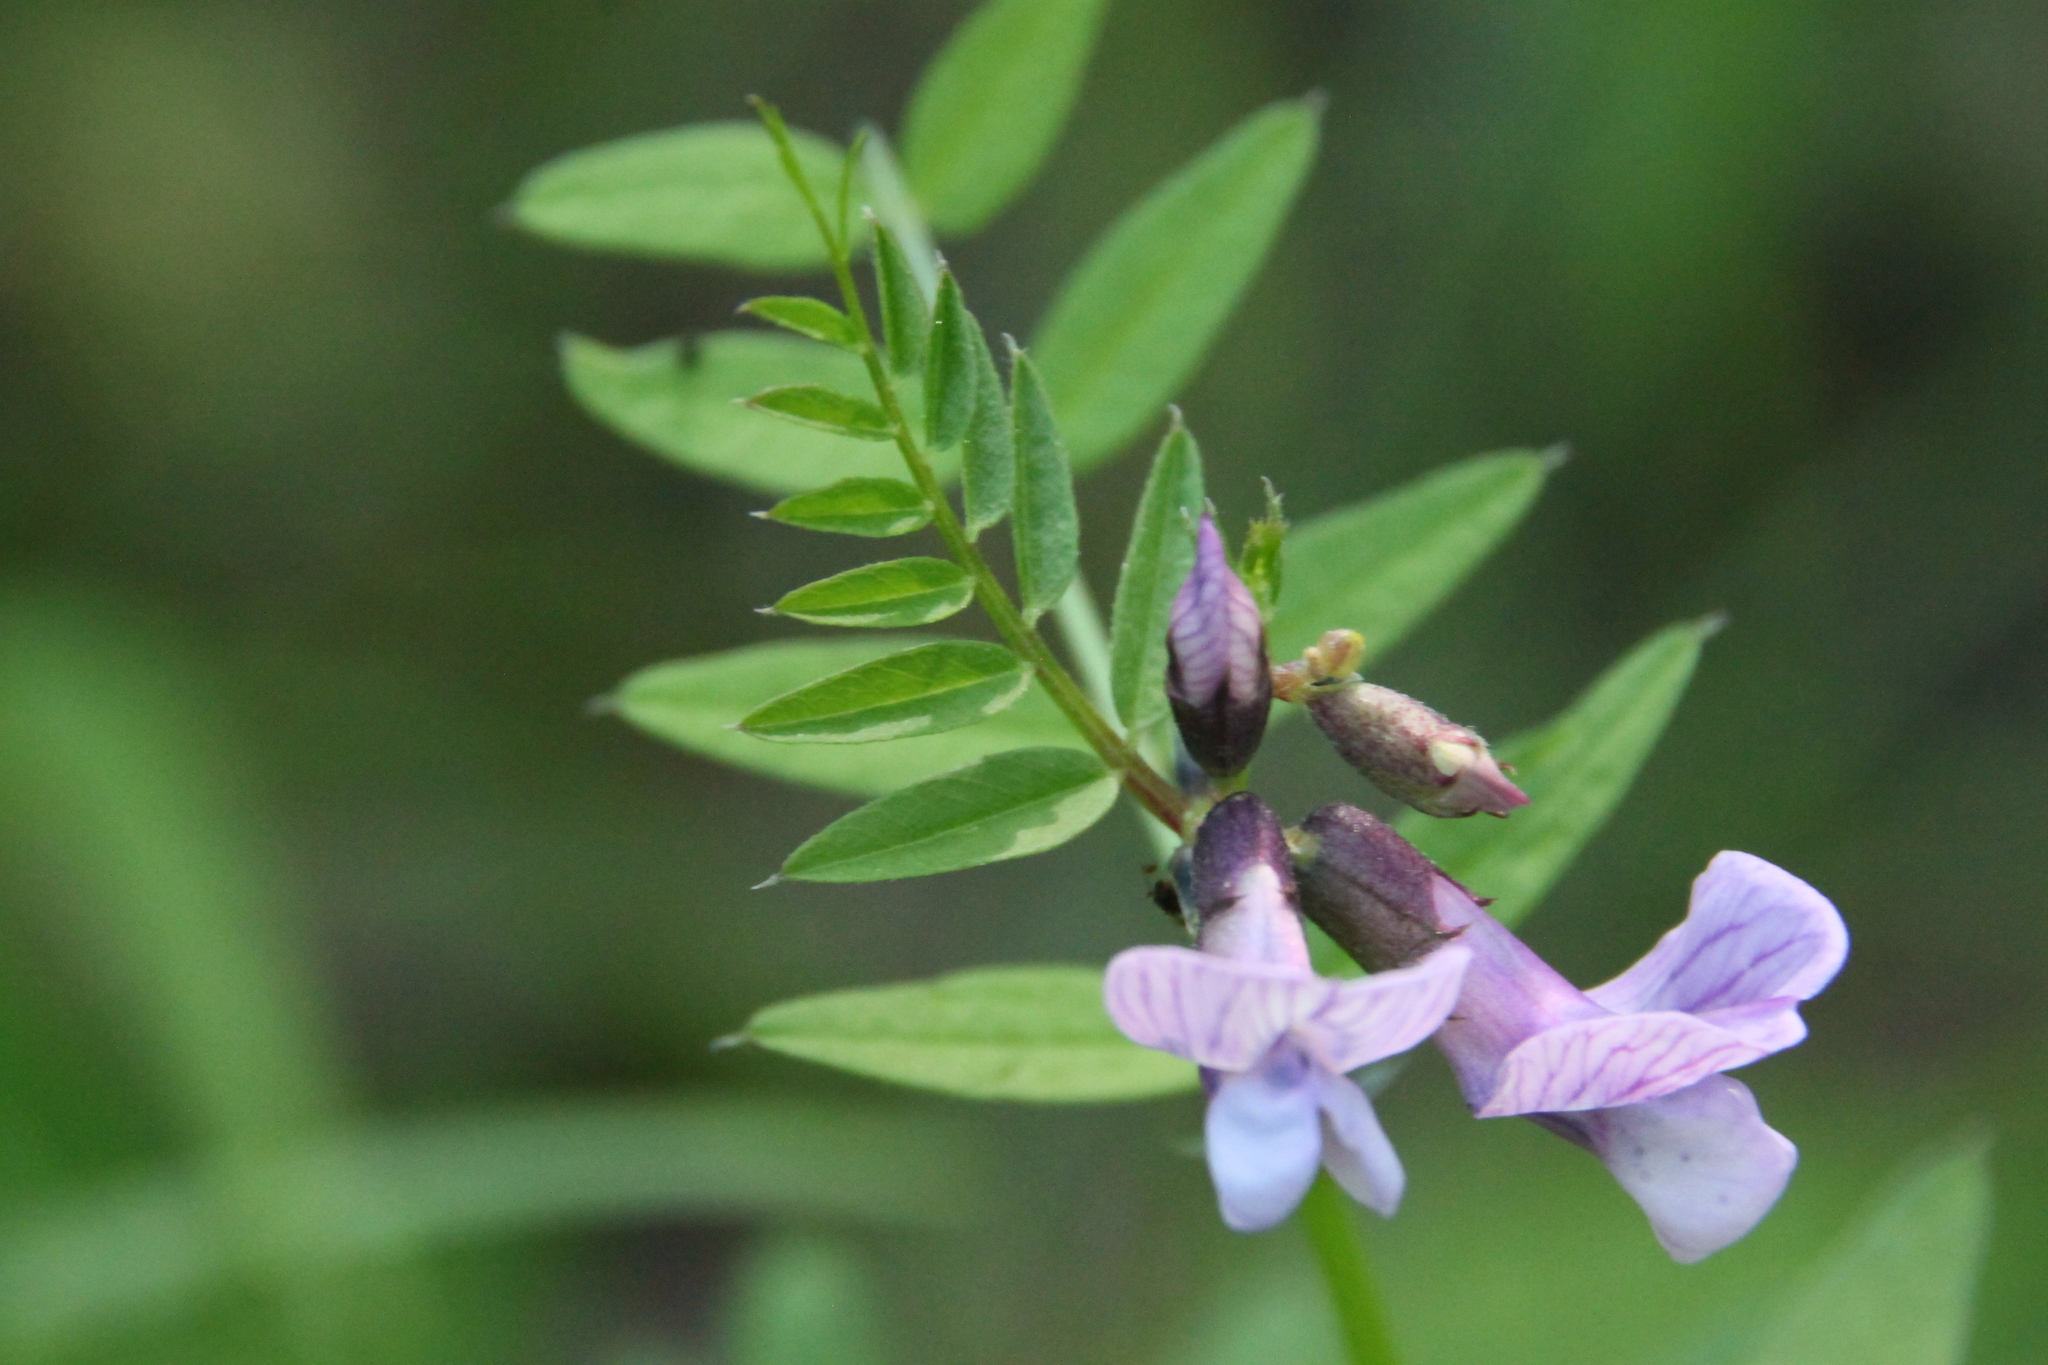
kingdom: Plantae
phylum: Tracheophyta
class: Magnoliopsida
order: Fabales
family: Fabaceae
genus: Vicia
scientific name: Vicia sepium
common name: Bush vetch
